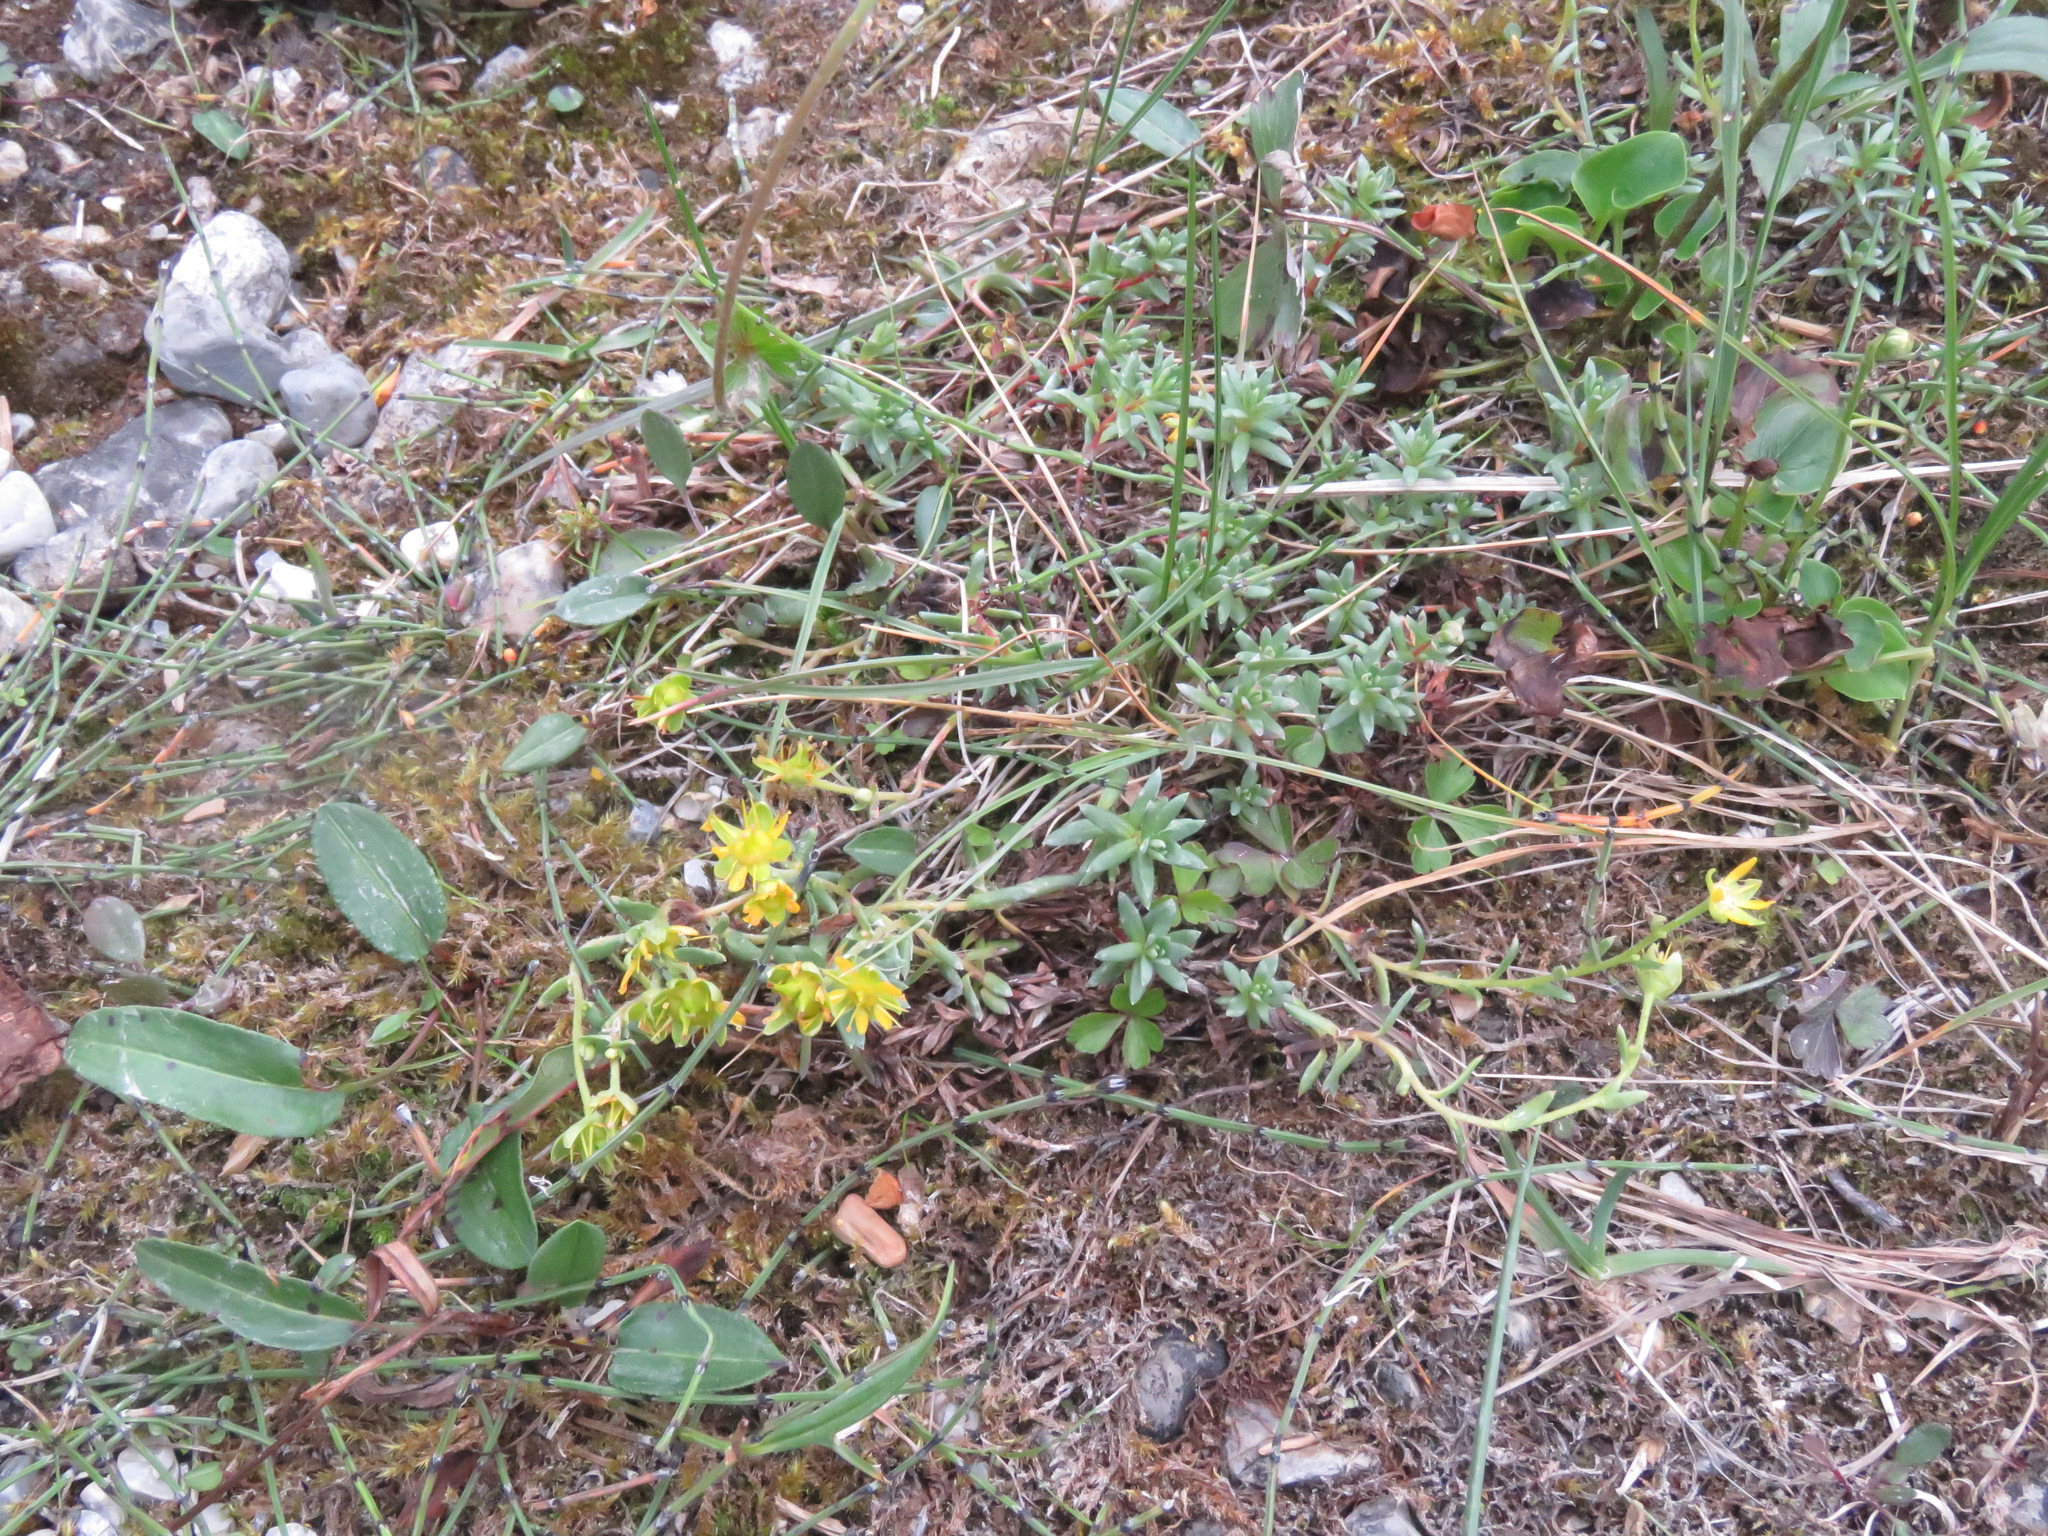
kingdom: Plantae
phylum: Tracheophyta
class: Magnoliopsida
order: Saxifragales
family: Saxifragaceae
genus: Saxifraga
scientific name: Saxifraga aizoides
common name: Yellow mountain saxifrage
